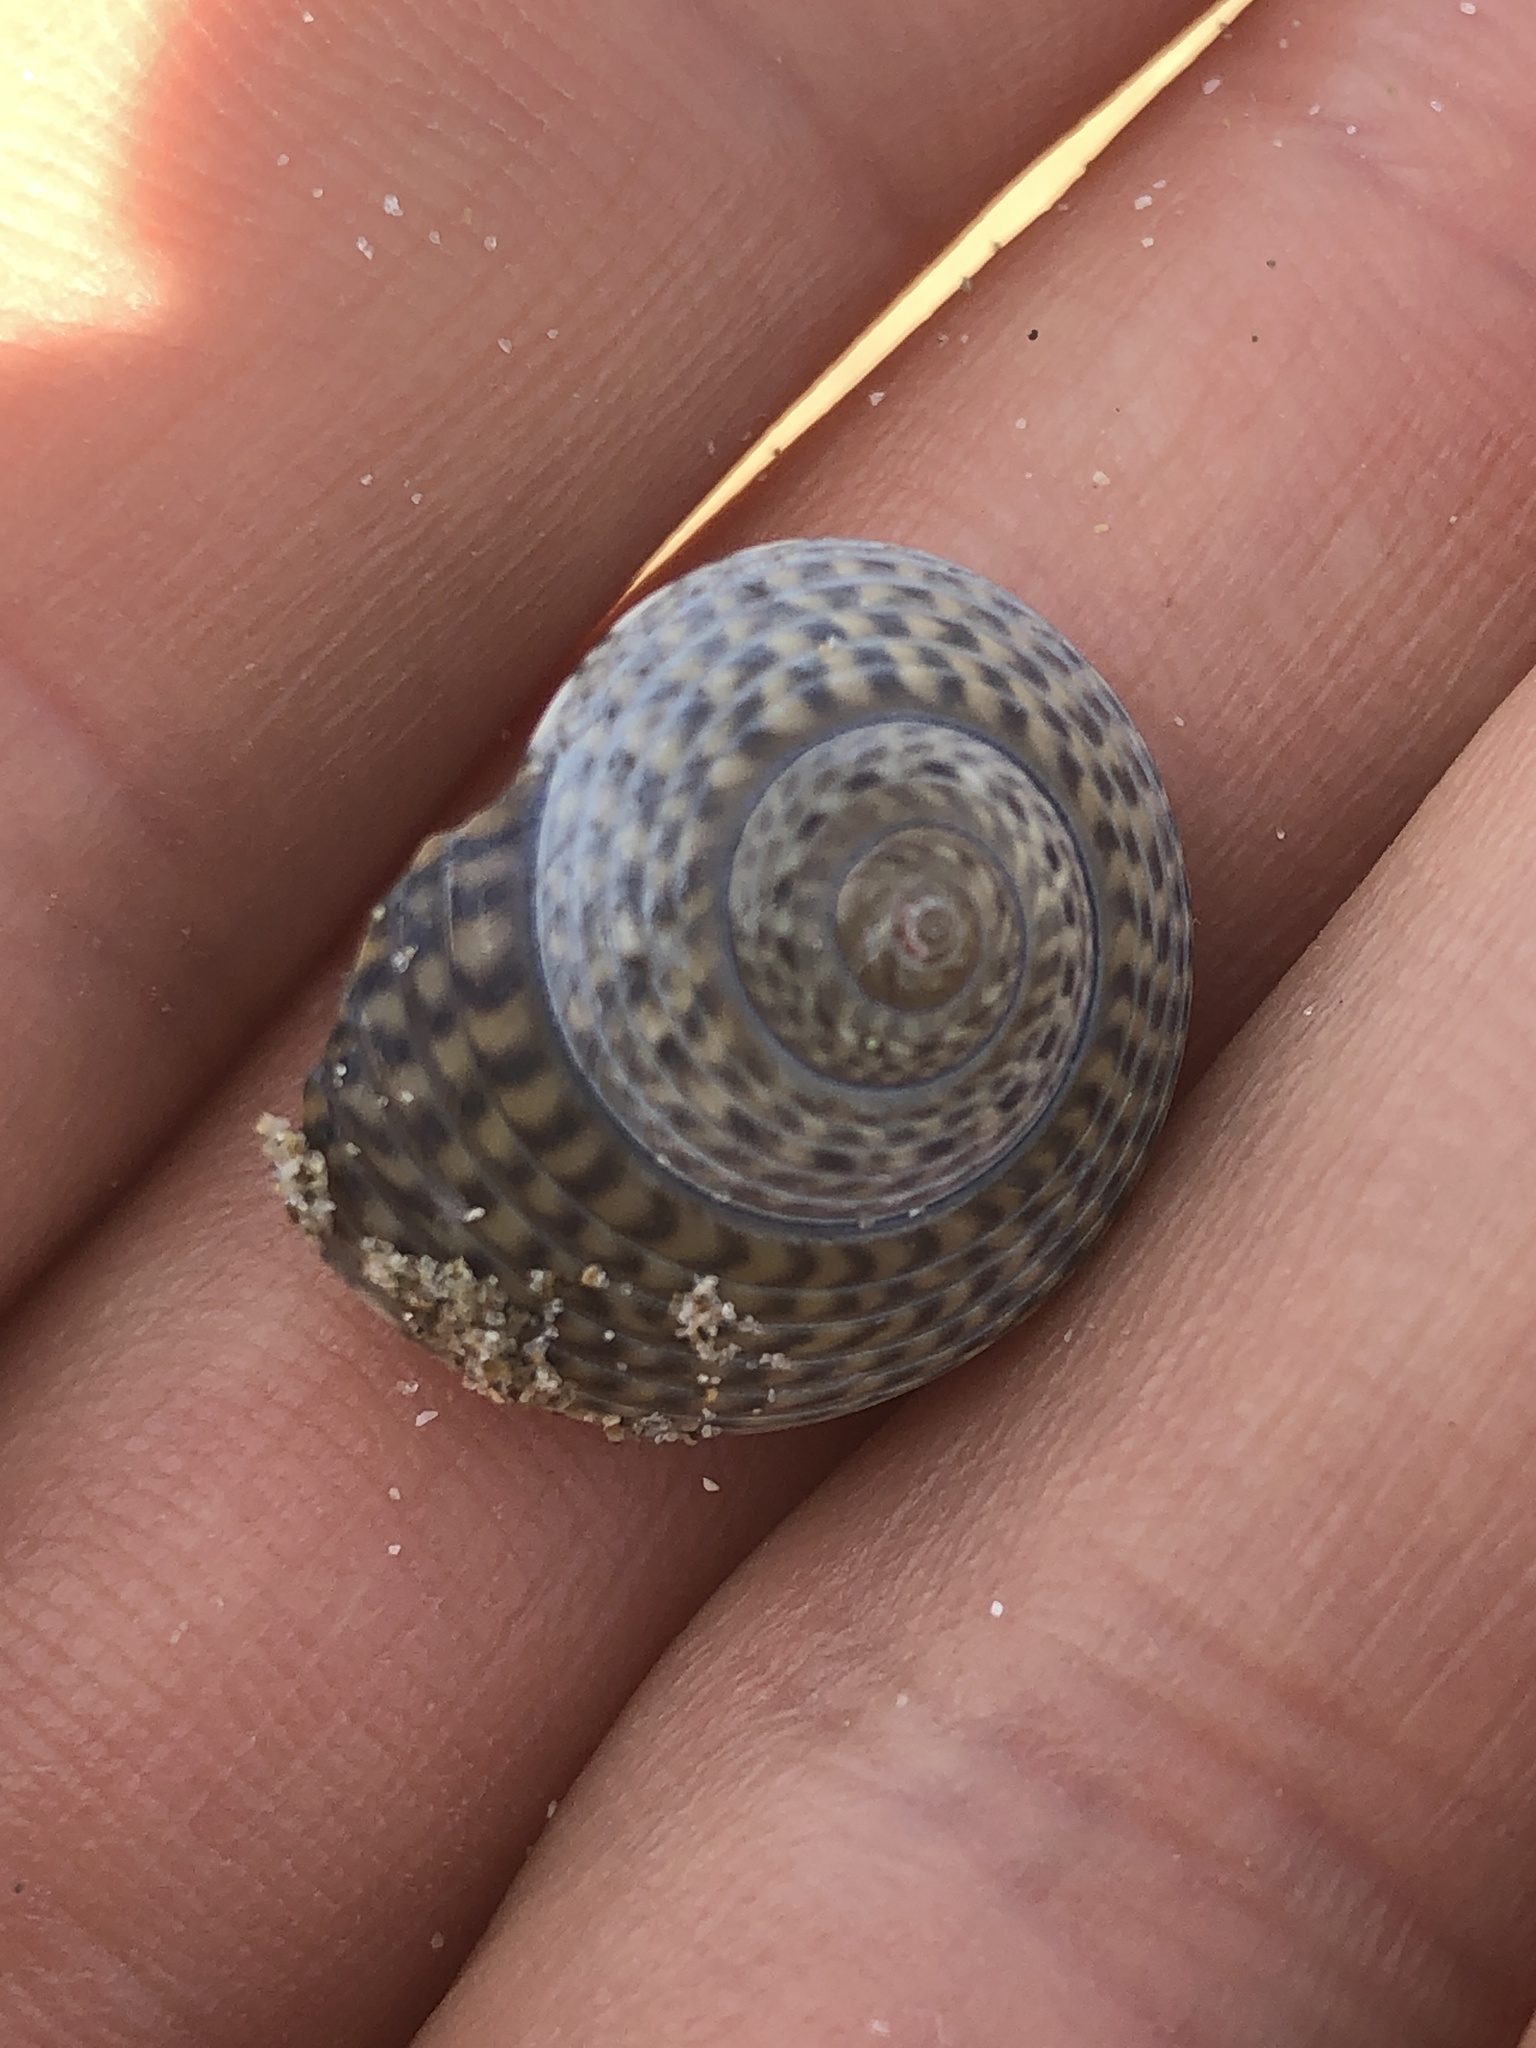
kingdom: Animalia
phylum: Mollusca
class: Gastropoda
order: Trochida
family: Trochidae
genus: Umbonium
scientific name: Umbonium costatum
